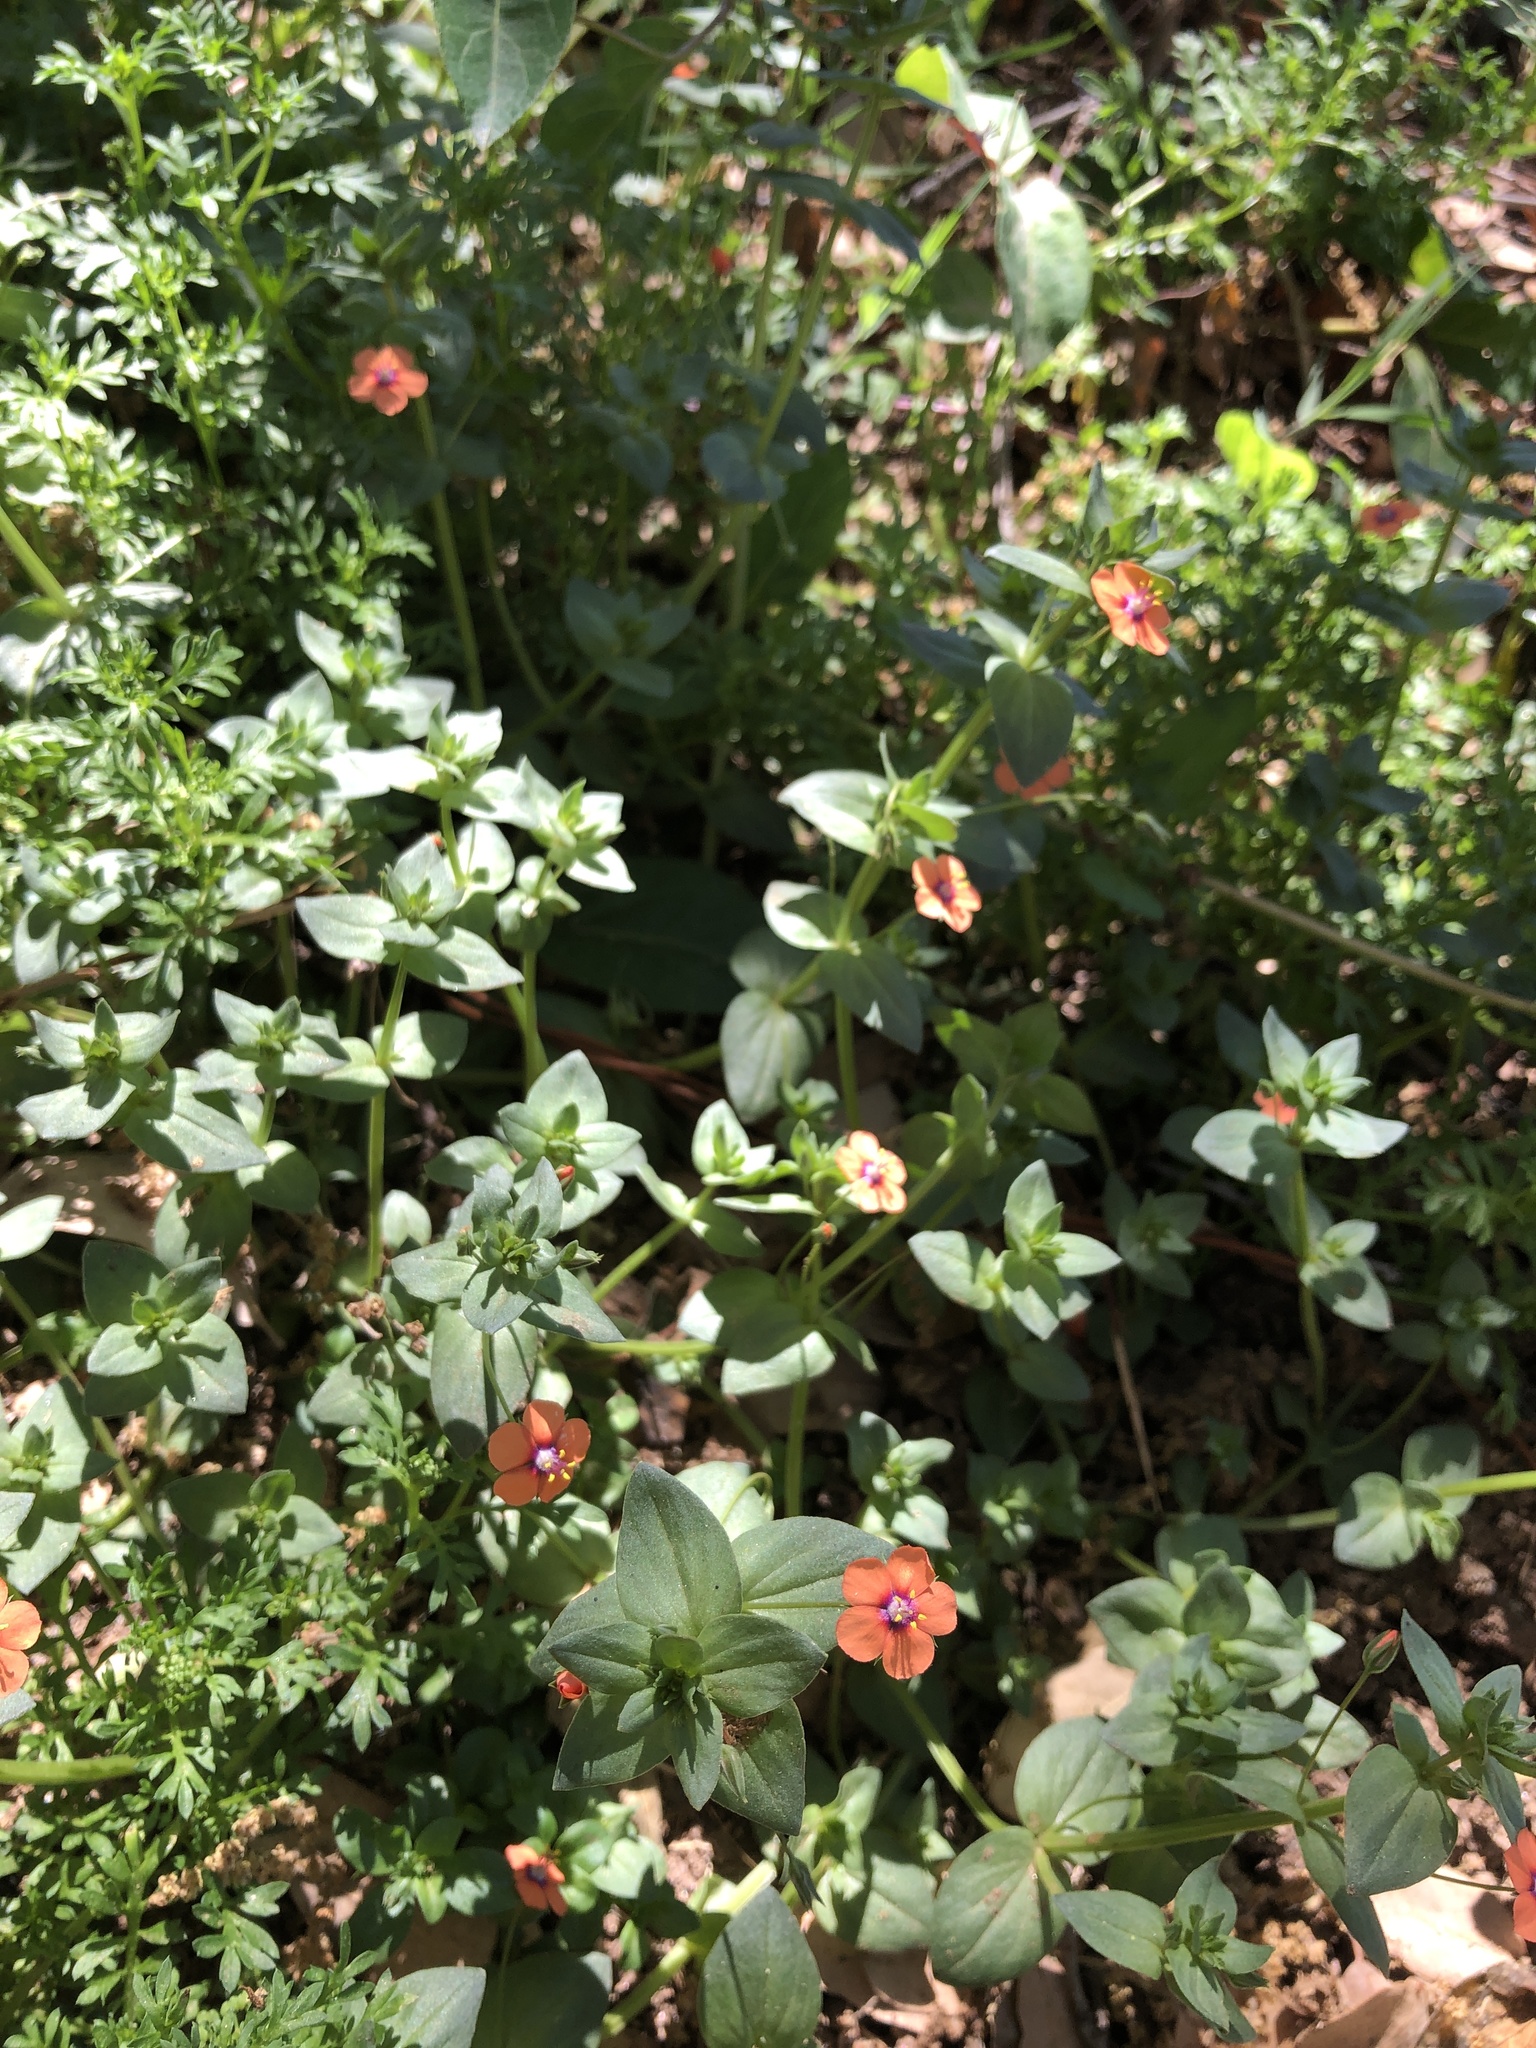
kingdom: Plantae
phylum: Tracheophyta
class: Magnoliopsida
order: Ericales
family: Primulaceae
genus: Lysimachia
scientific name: Lysimachia arvensis
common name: Scarlet pimpernel
